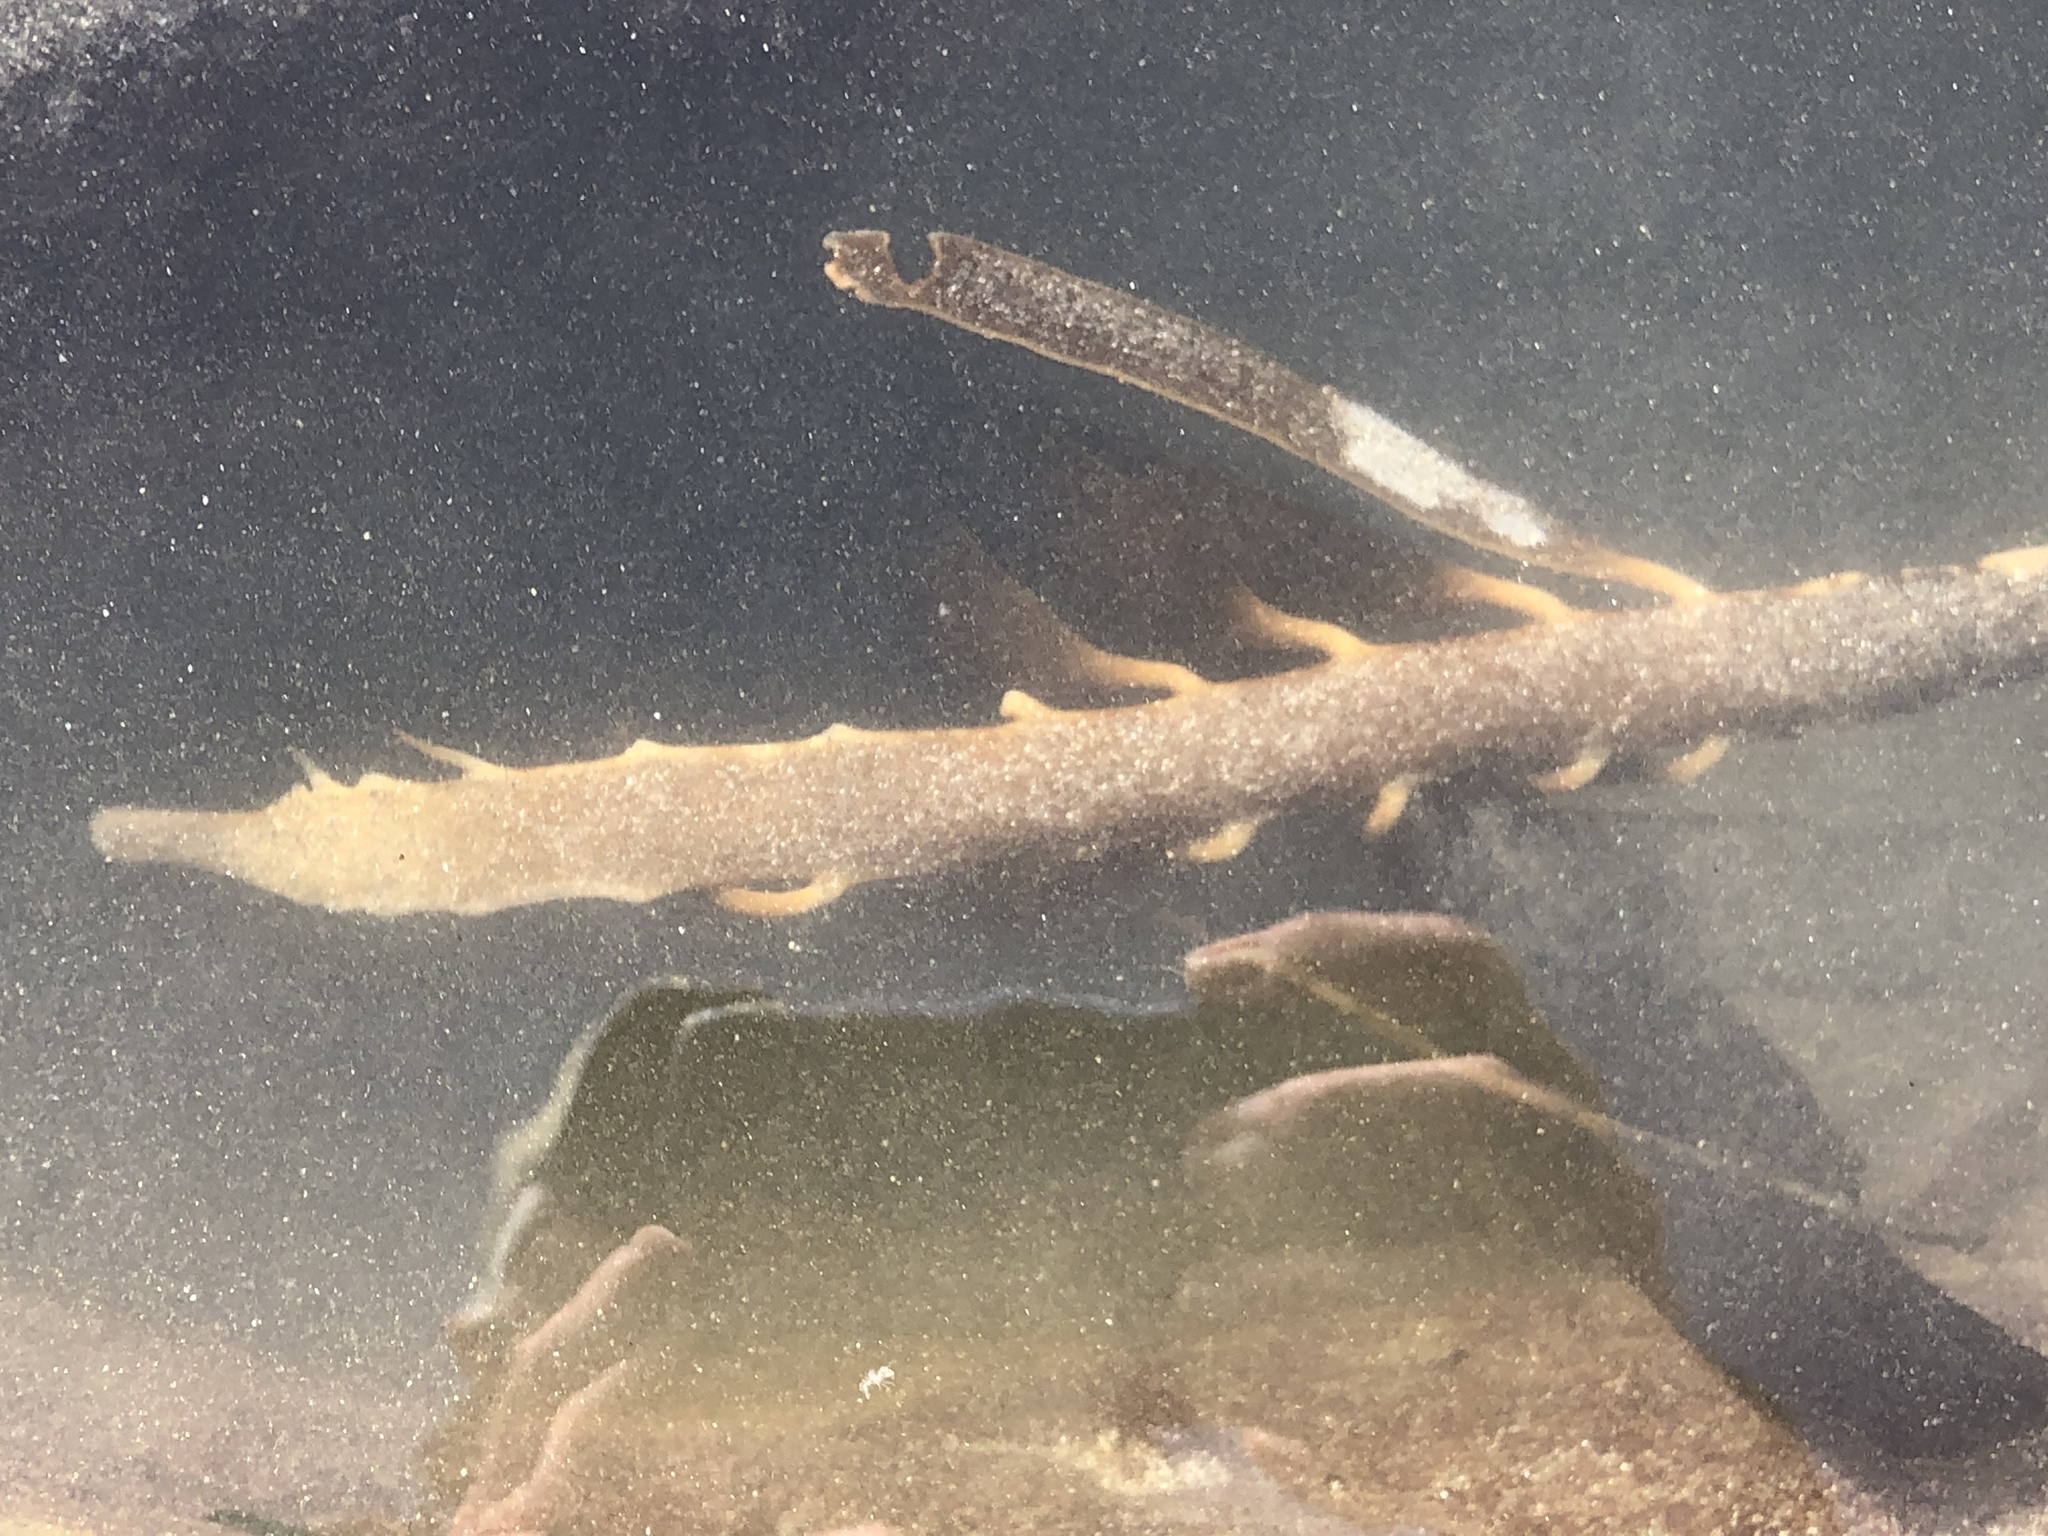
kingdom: Chromista
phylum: Ochrophyta
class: Phaeophyceae
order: Laminariales
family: Alariaceae
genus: Pterygophora
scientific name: Pterygophora californica
